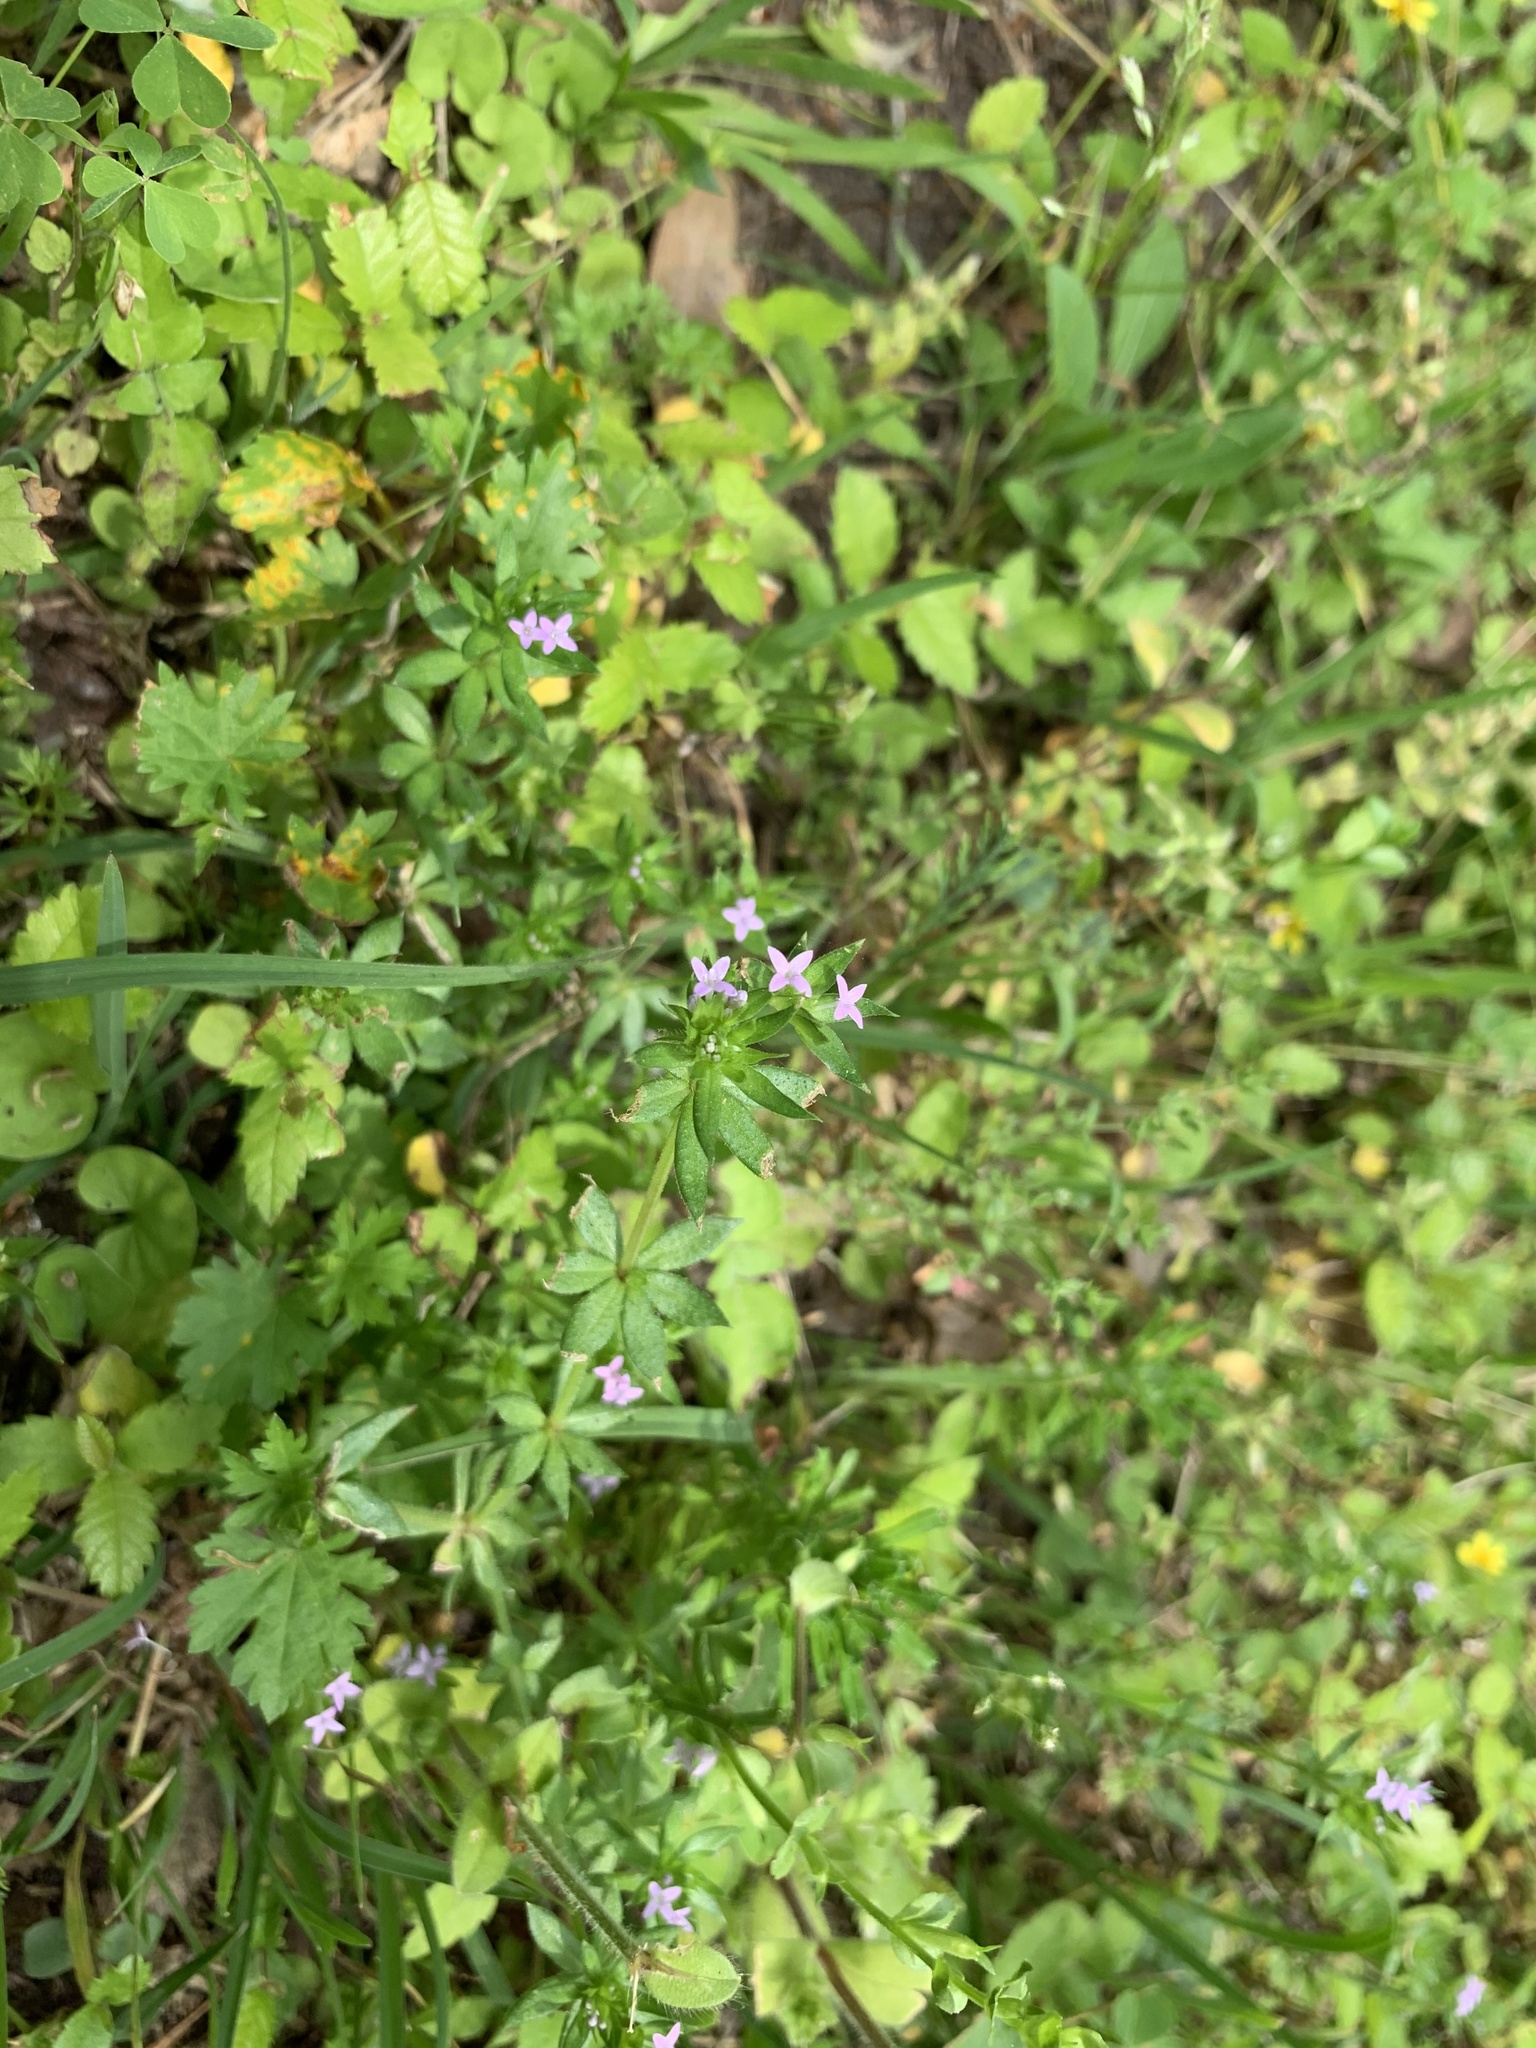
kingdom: Plantae
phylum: Tracheophyta
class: Magnoliopsida
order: Gentianales
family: Rubiaceae
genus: Sherardia
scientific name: Sherardia arvensis
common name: Field madder
